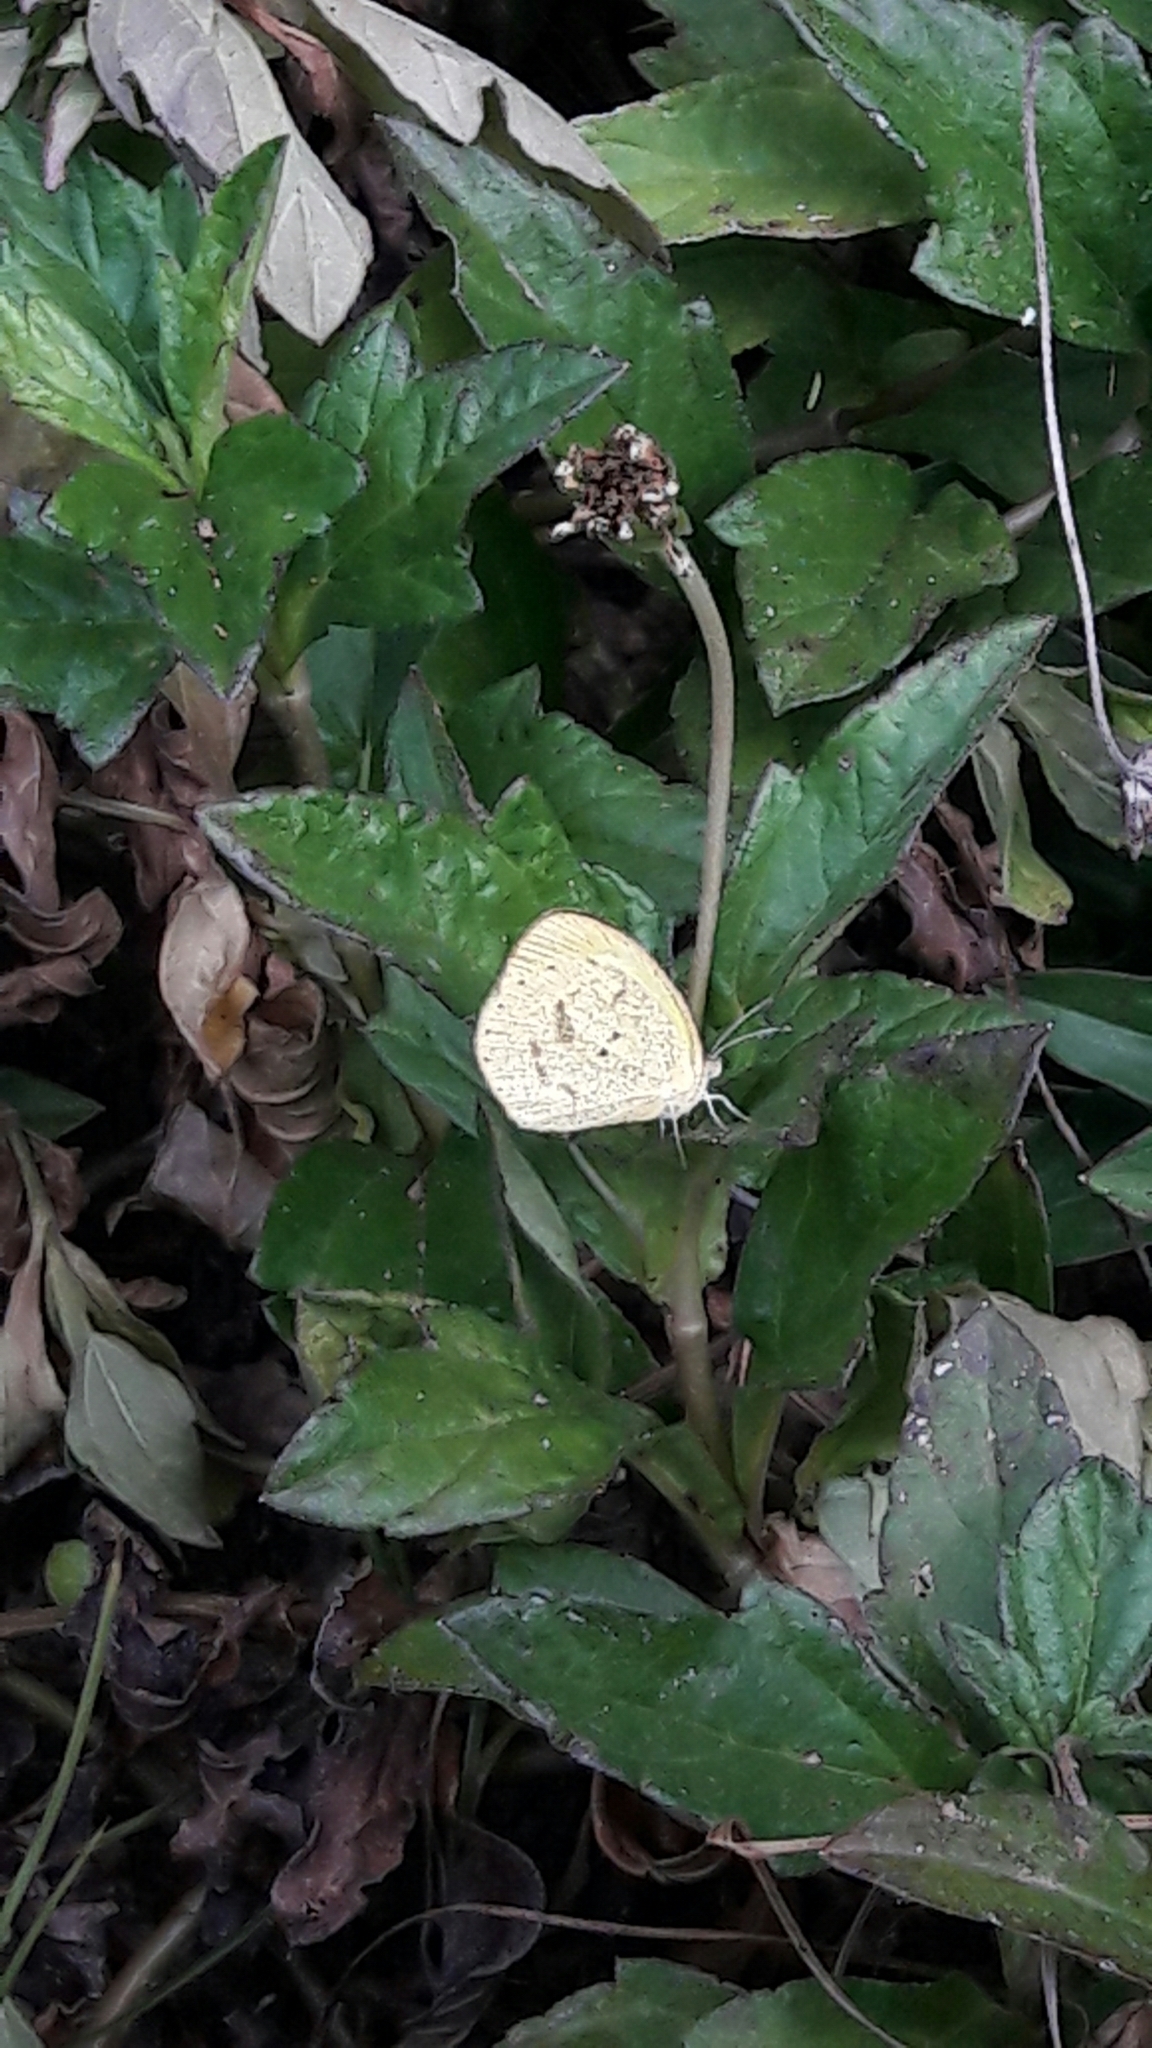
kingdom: Animalia
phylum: Arthropoda
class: Insecta
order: Lepidoptera
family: Pieridae
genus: Pyrisitia
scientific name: Pyrisitia nise
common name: Mimosa yellow
